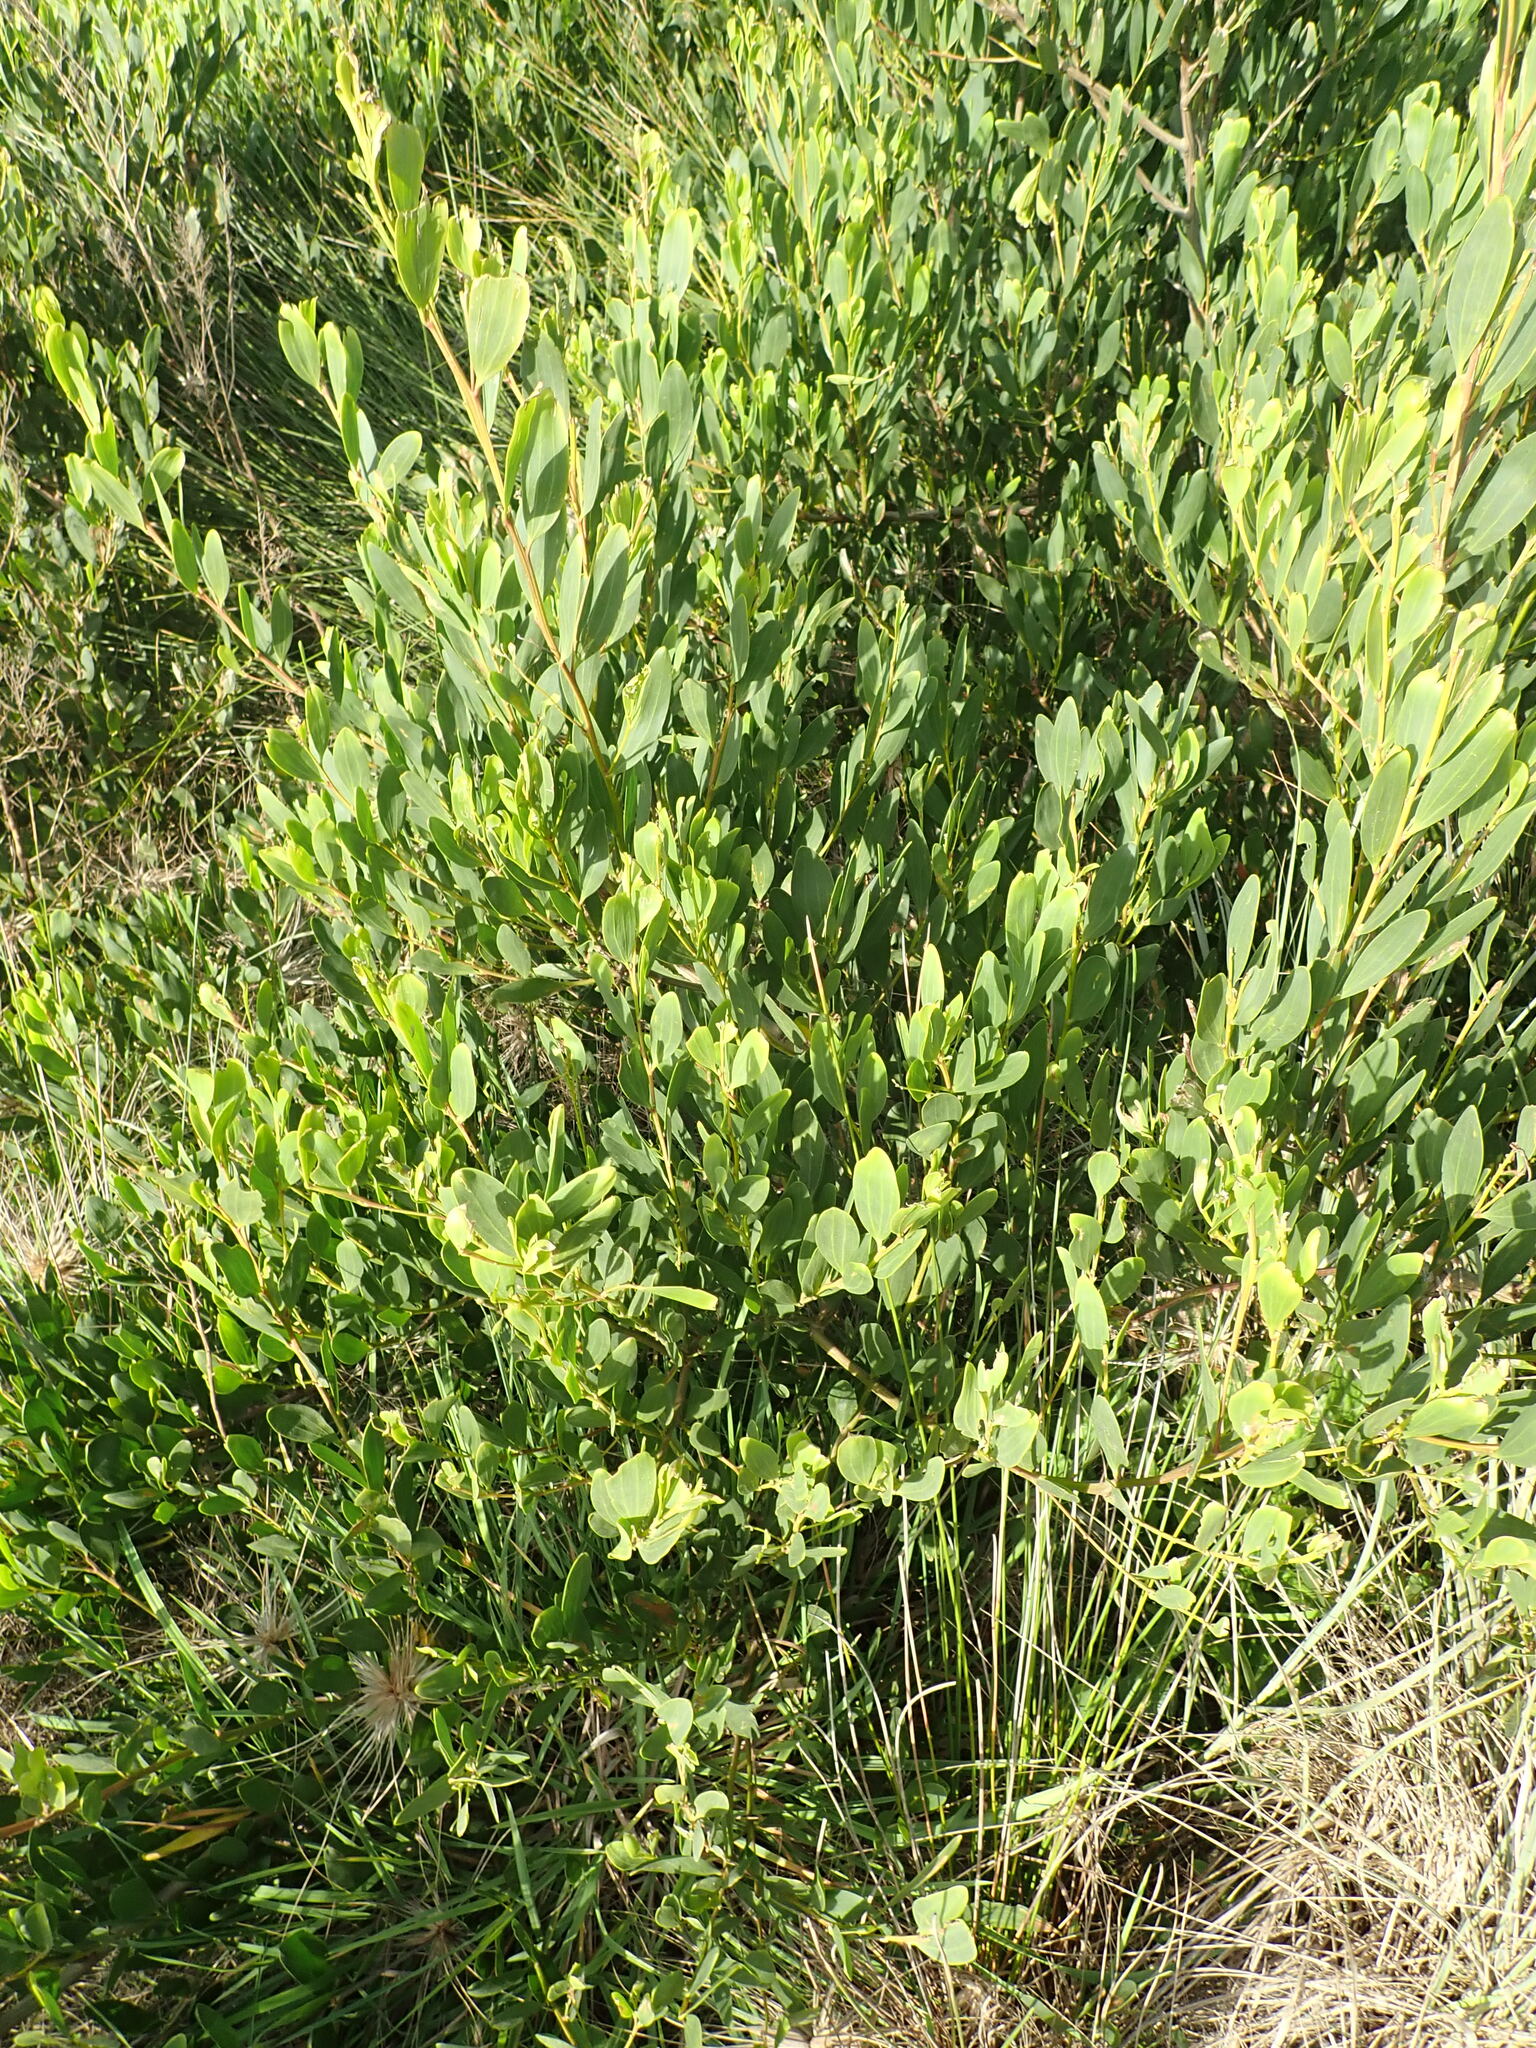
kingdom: Plantae
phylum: Tracheophyta
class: Magnoliopsida
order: Fabales
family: Fabaceae
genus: Acacia
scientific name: Acacia longifolia
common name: Sydney golden wattle
